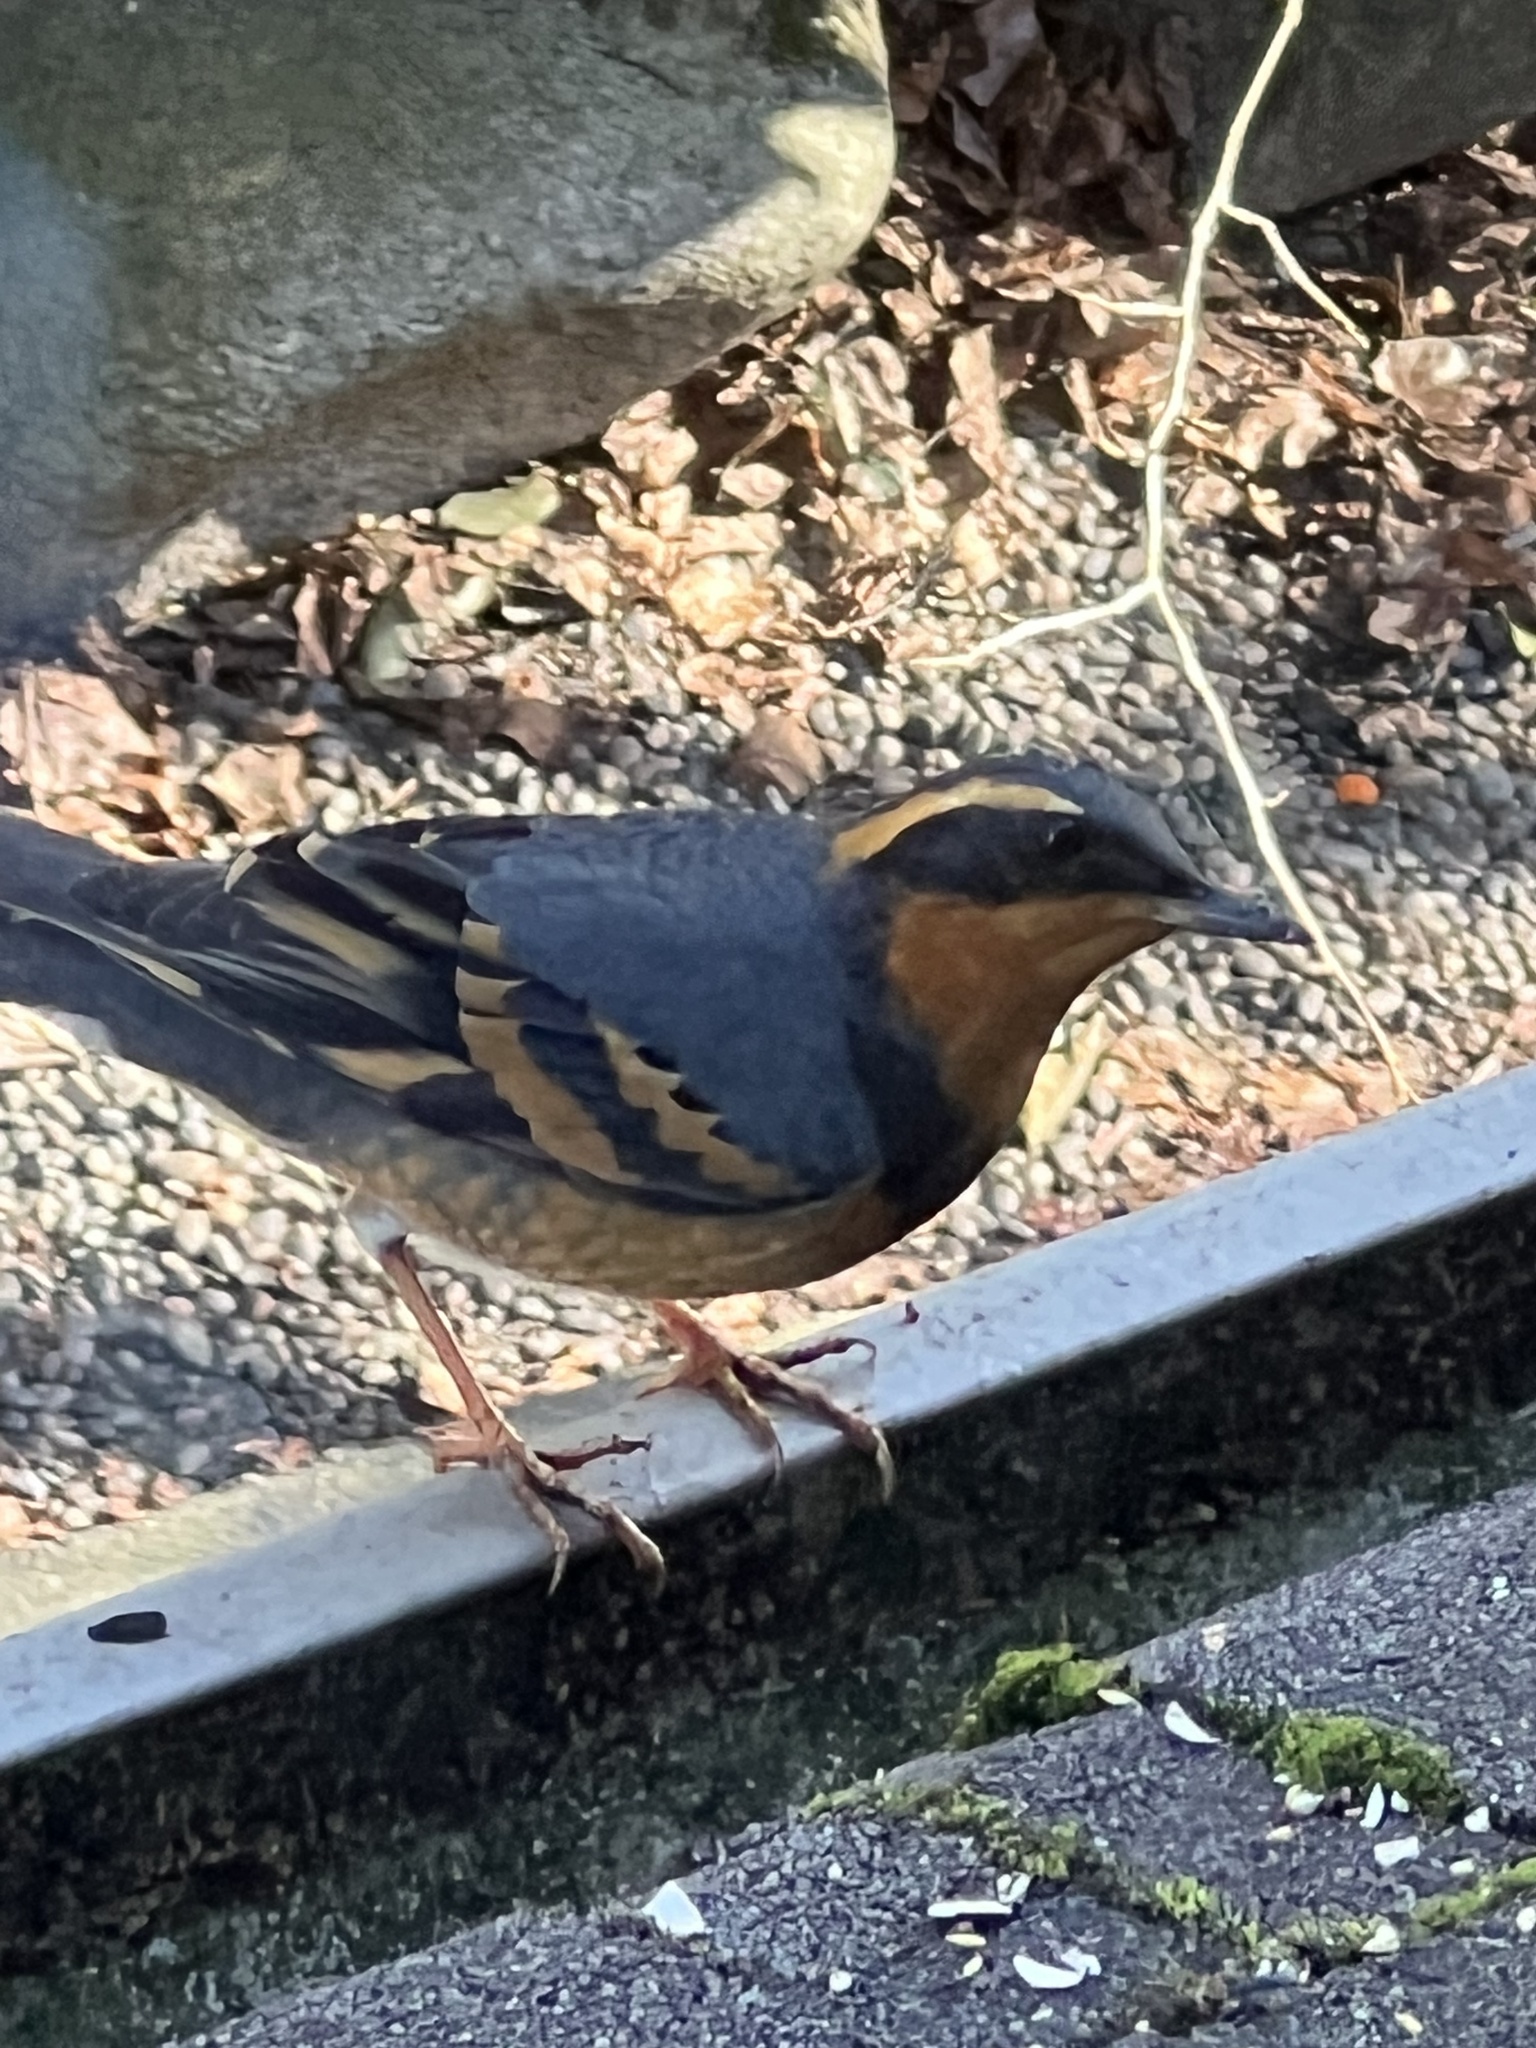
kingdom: Animalia
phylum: Chordata
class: Aves
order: Passeriformes
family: Turdidae
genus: Ixoreus
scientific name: Ixoreus naevius
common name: Varied thrush
